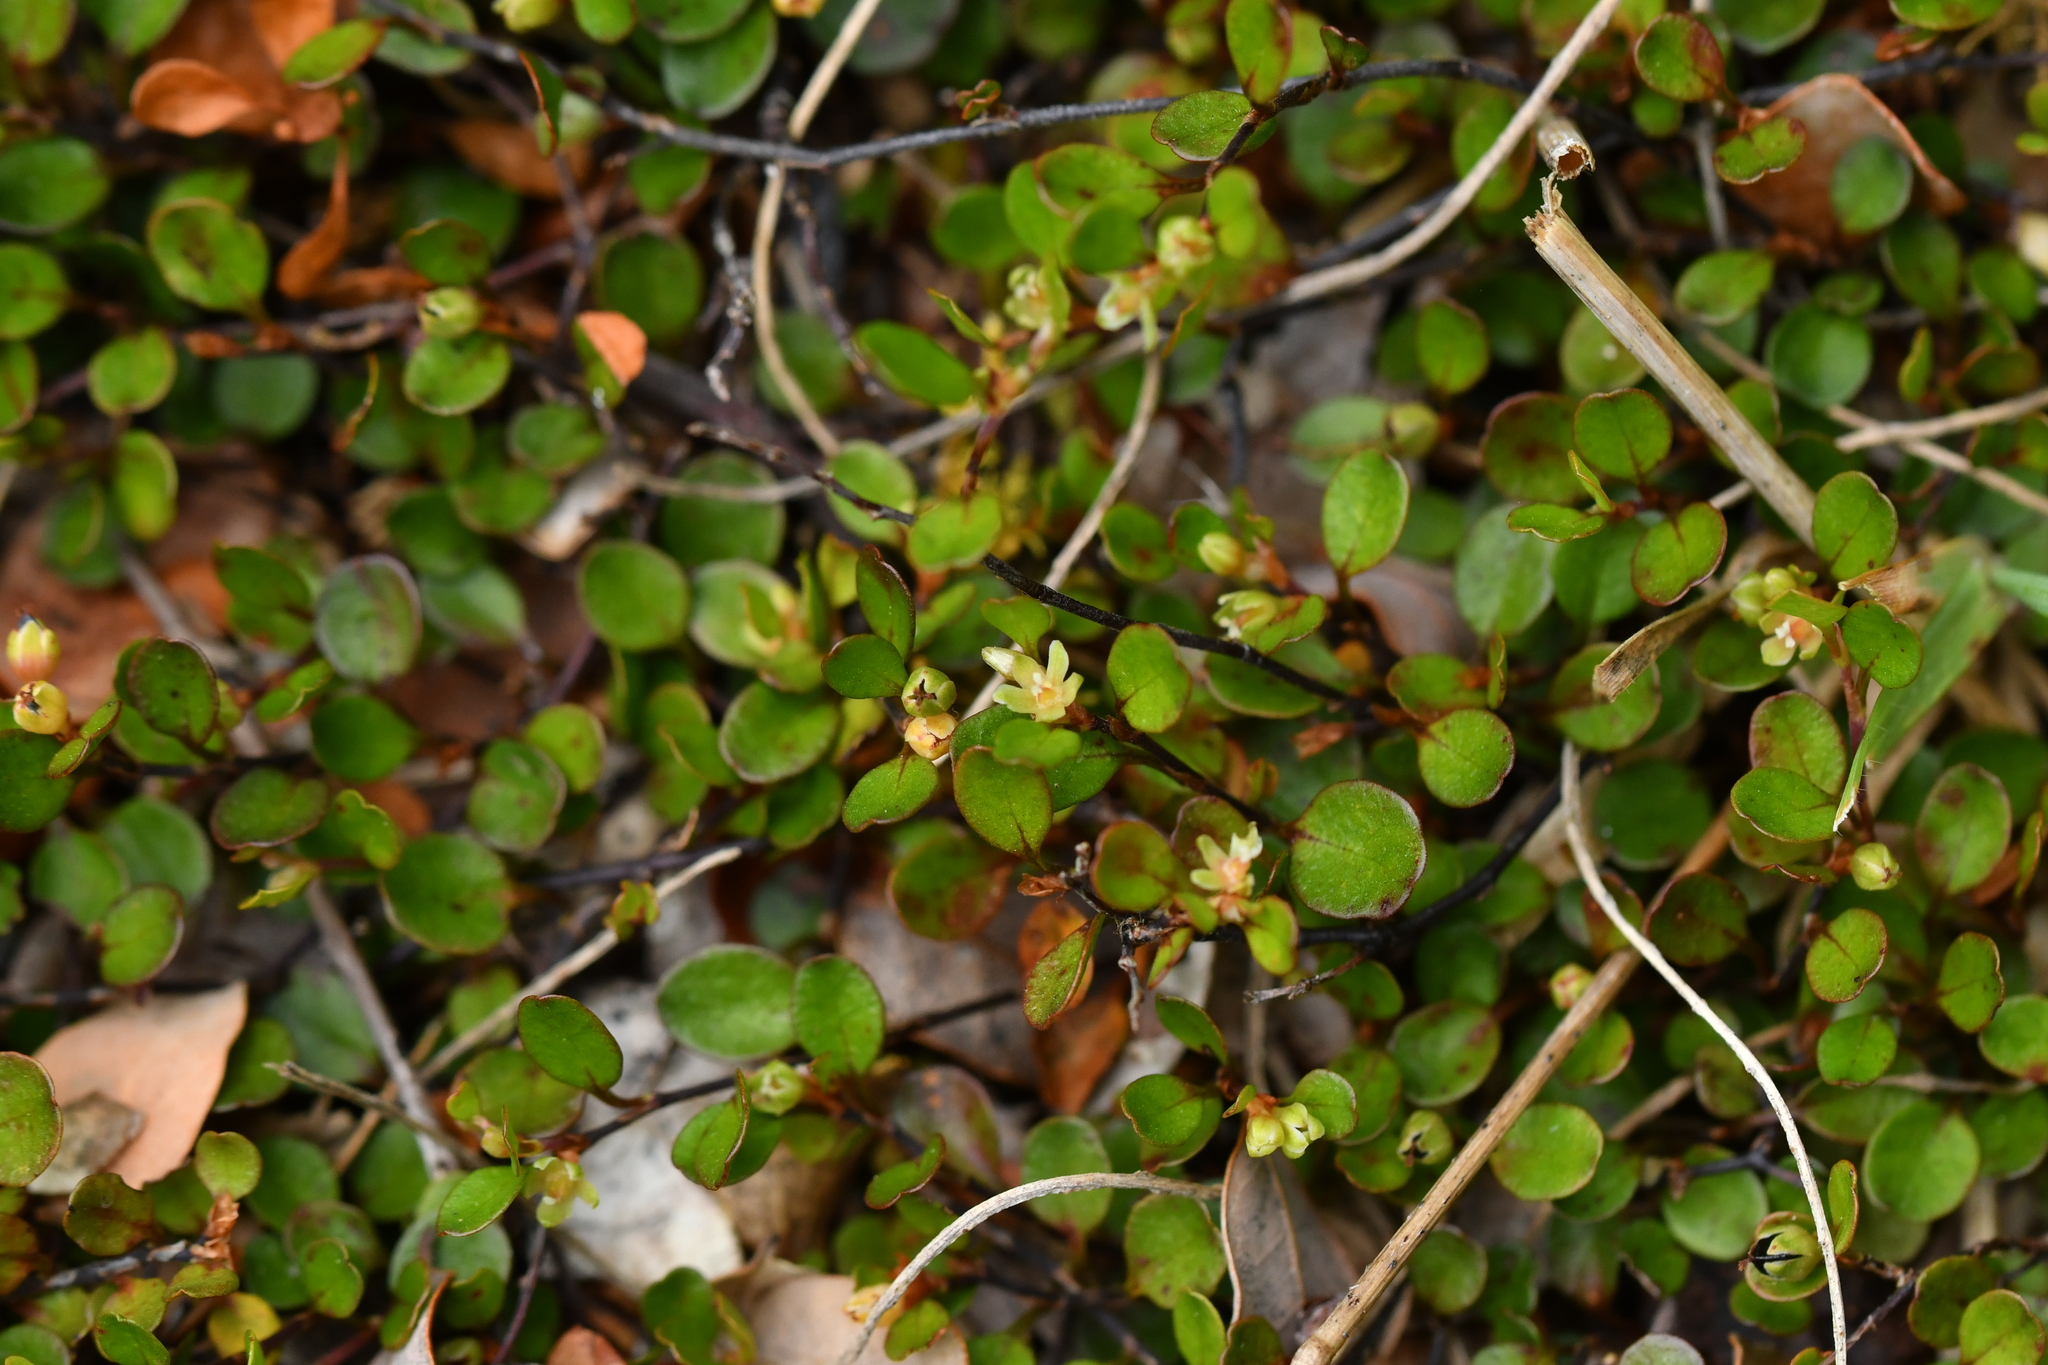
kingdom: Plantae
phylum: Tracheophyta
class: Magnoliopsida
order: Caryophyllales
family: Polygonaceae
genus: Muehlenbeckia
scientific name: Muehlenbeckia axillaris
